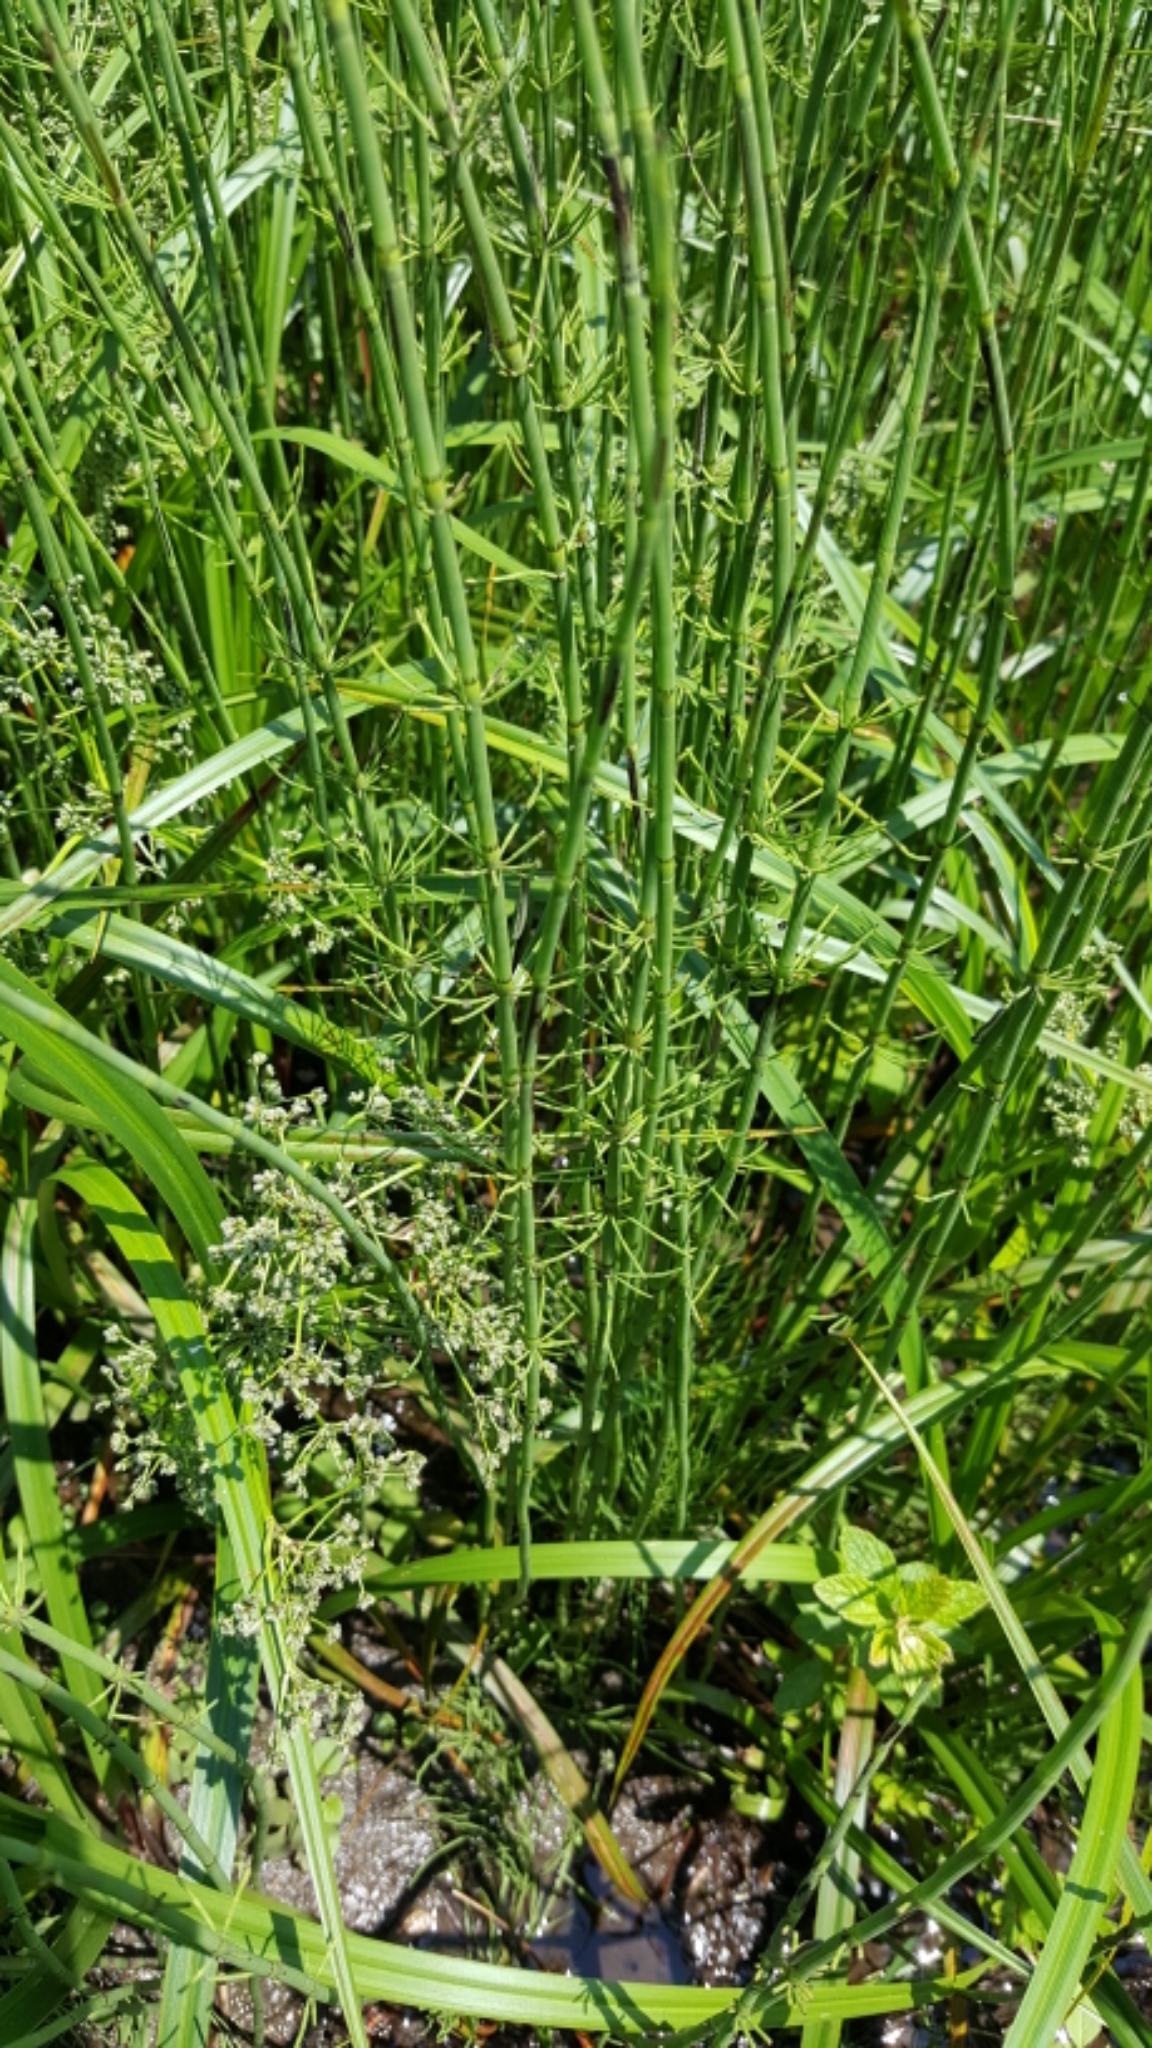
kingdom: Plantae
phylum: Tracheophyta
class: Polypodiopsida
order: Equisetales
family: Equisetaceae
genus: Equisetum
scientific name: Equisetum fluviatile
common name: Water horsetail
